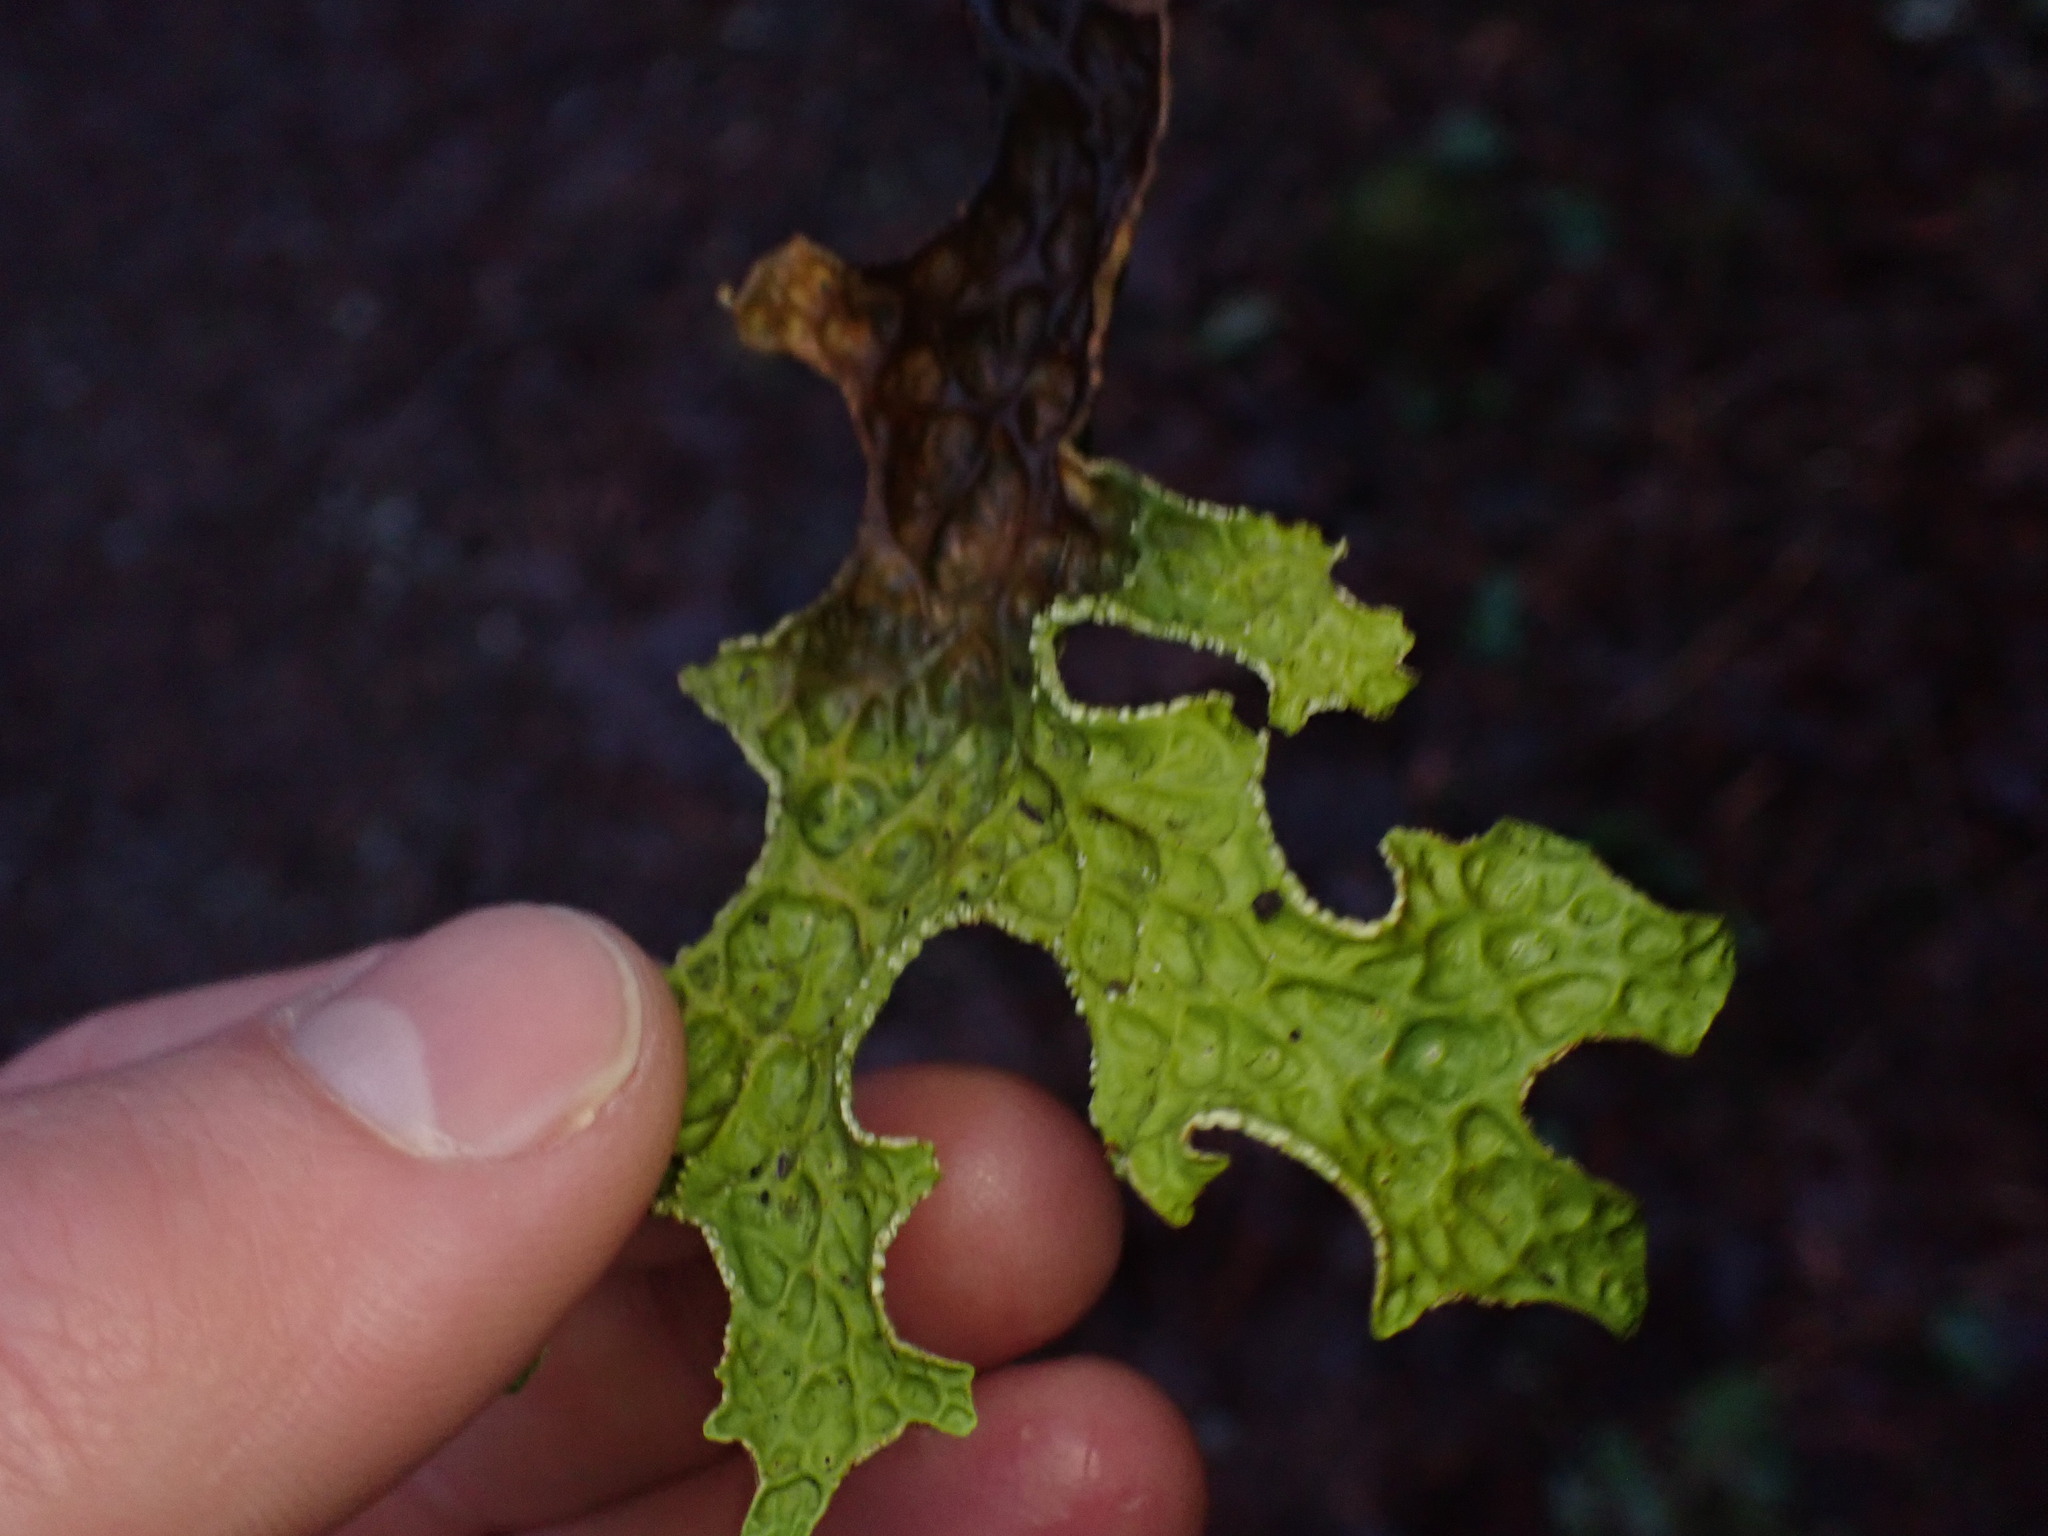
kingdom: Fungi
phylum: Ascomycota
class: Lecanoromycetes
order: Peltigerales
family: Lobariaceae
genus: Lobaria
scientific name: Lobaria pulmonaria
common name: Lungwort
